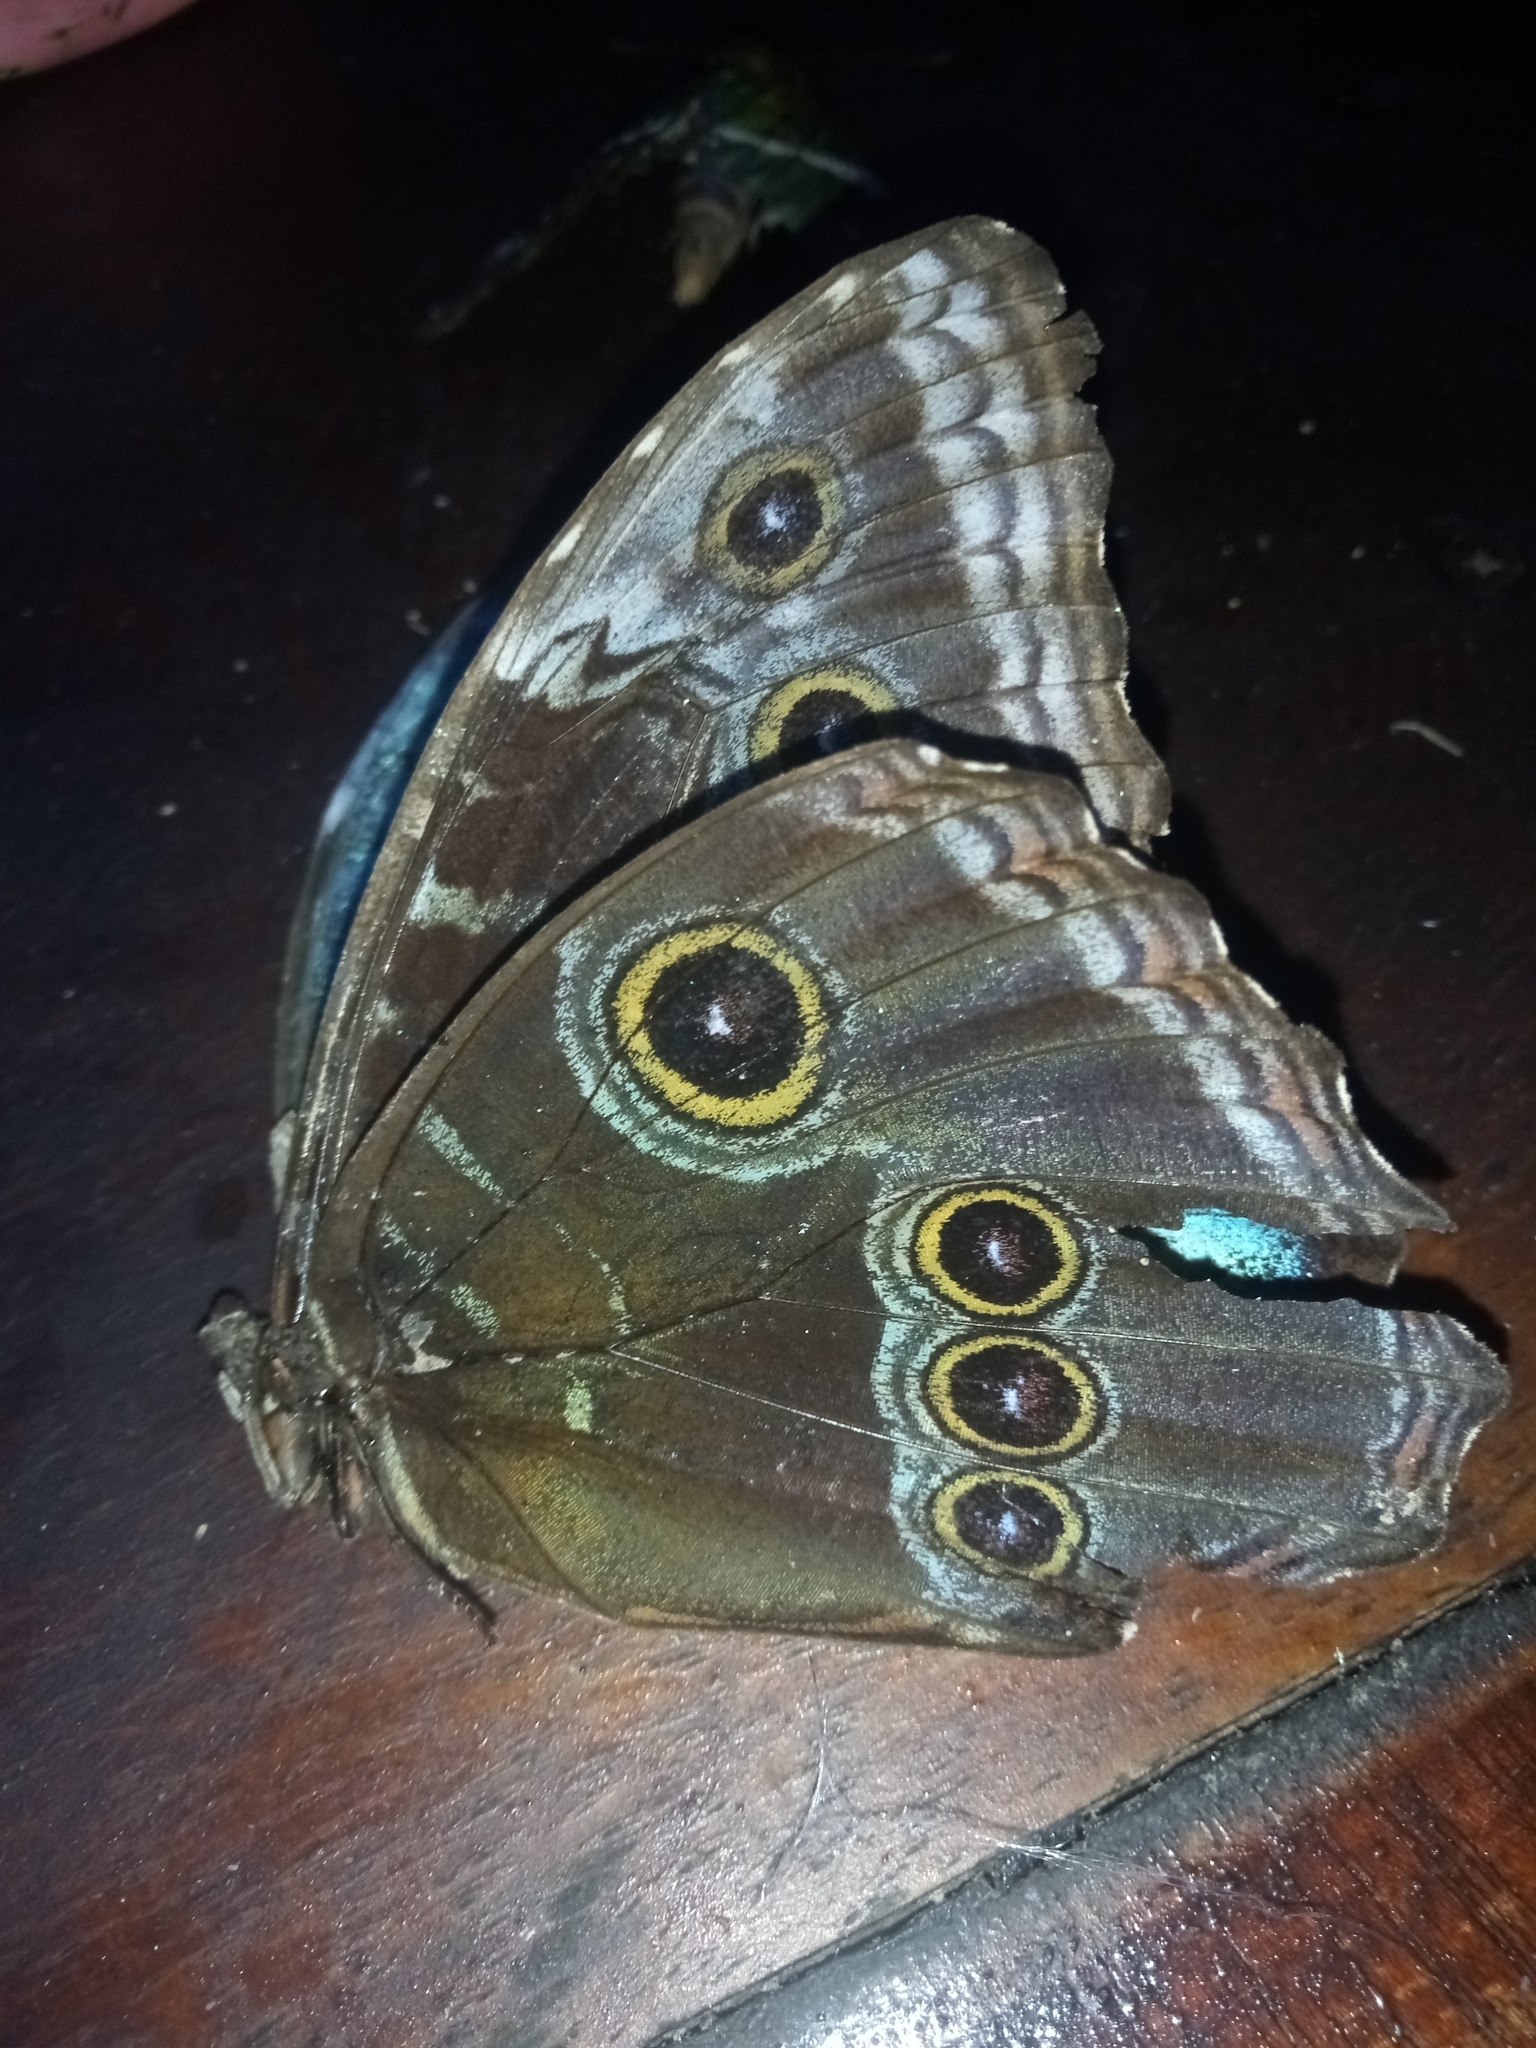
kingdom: Animalia
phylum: Arthropoda
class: Insecta
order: Lepidoptera
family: Nymphalidae
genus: Morpho
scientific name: Morpho helenor
